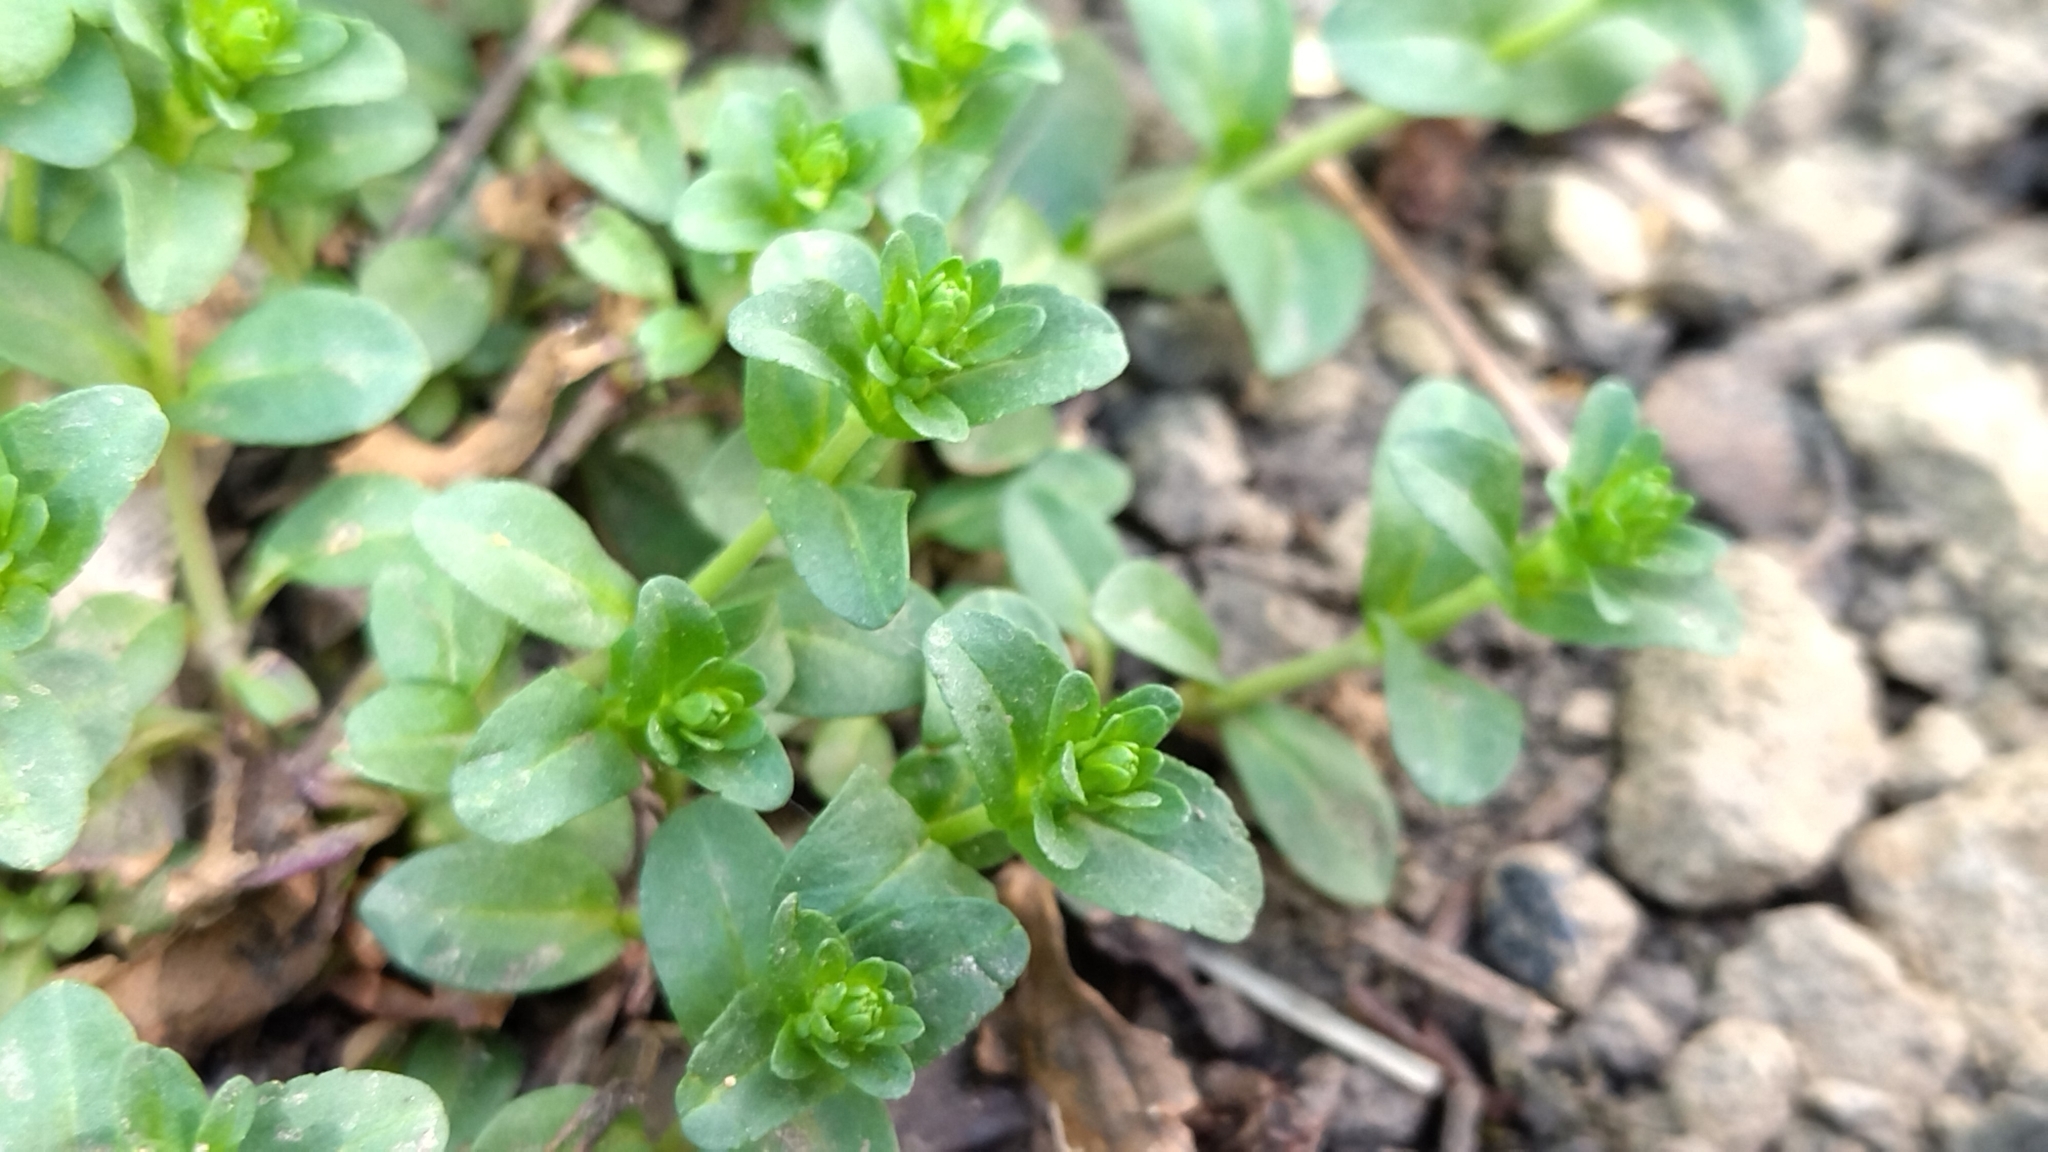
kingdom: Plantae
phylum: Tracheophyta
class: Magnoliopsida
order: Lamiales
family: Plantaginaceae
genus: Veronica
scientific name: Veronica serpyllifolia
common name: Thyme-leaved speedwell
